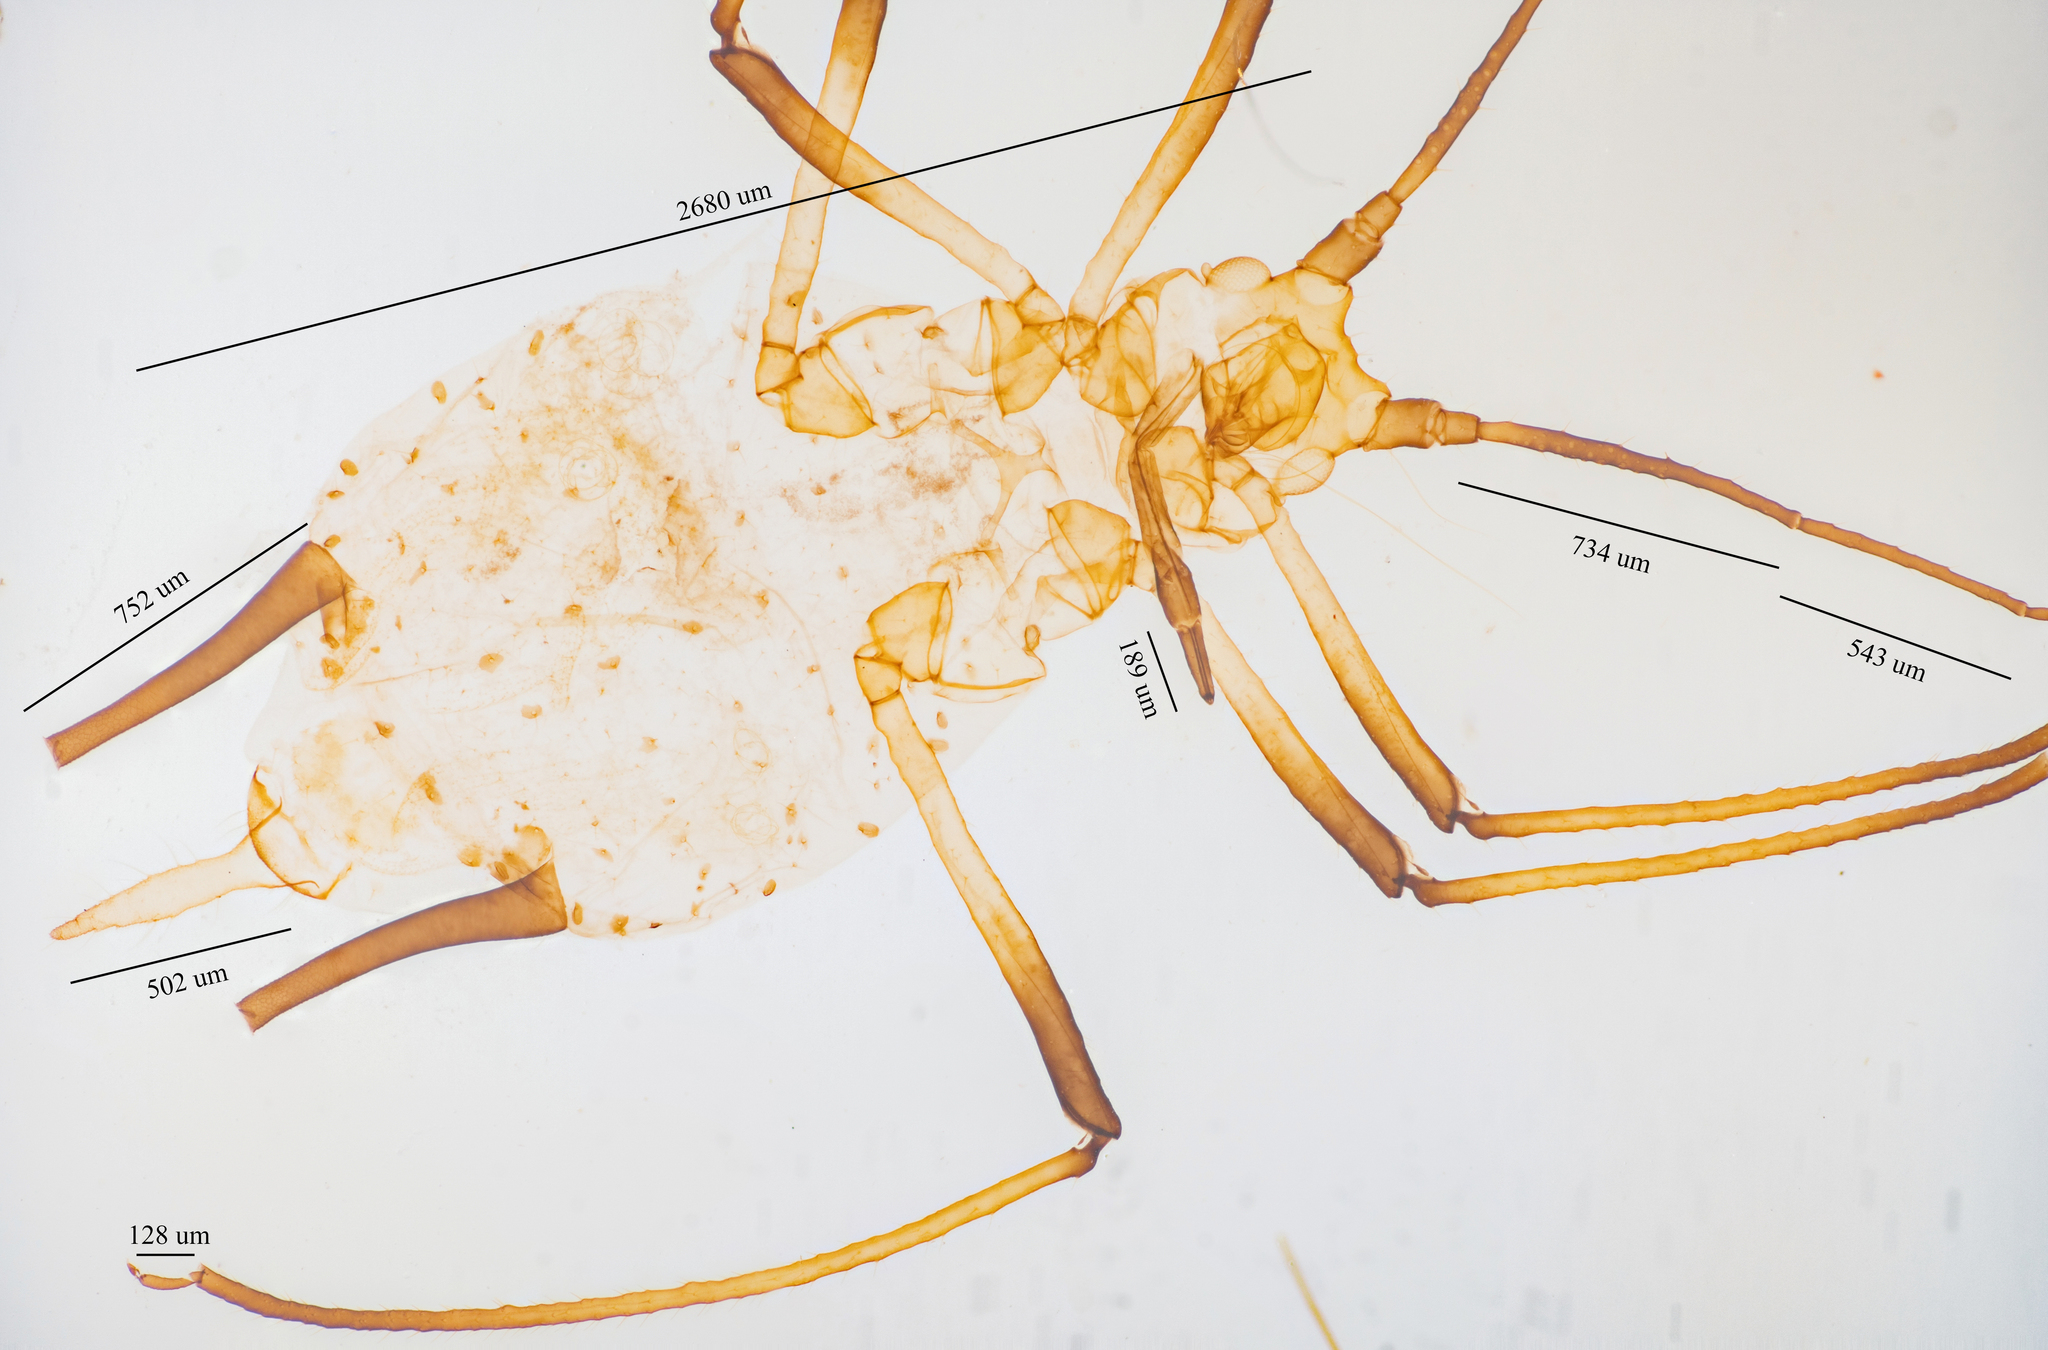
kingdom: Animalia
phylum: Arthropoda
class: Insecta
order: Hemiptera
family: Aphididae
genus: Uroleucon
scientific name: Uroleucon ambrosiae
